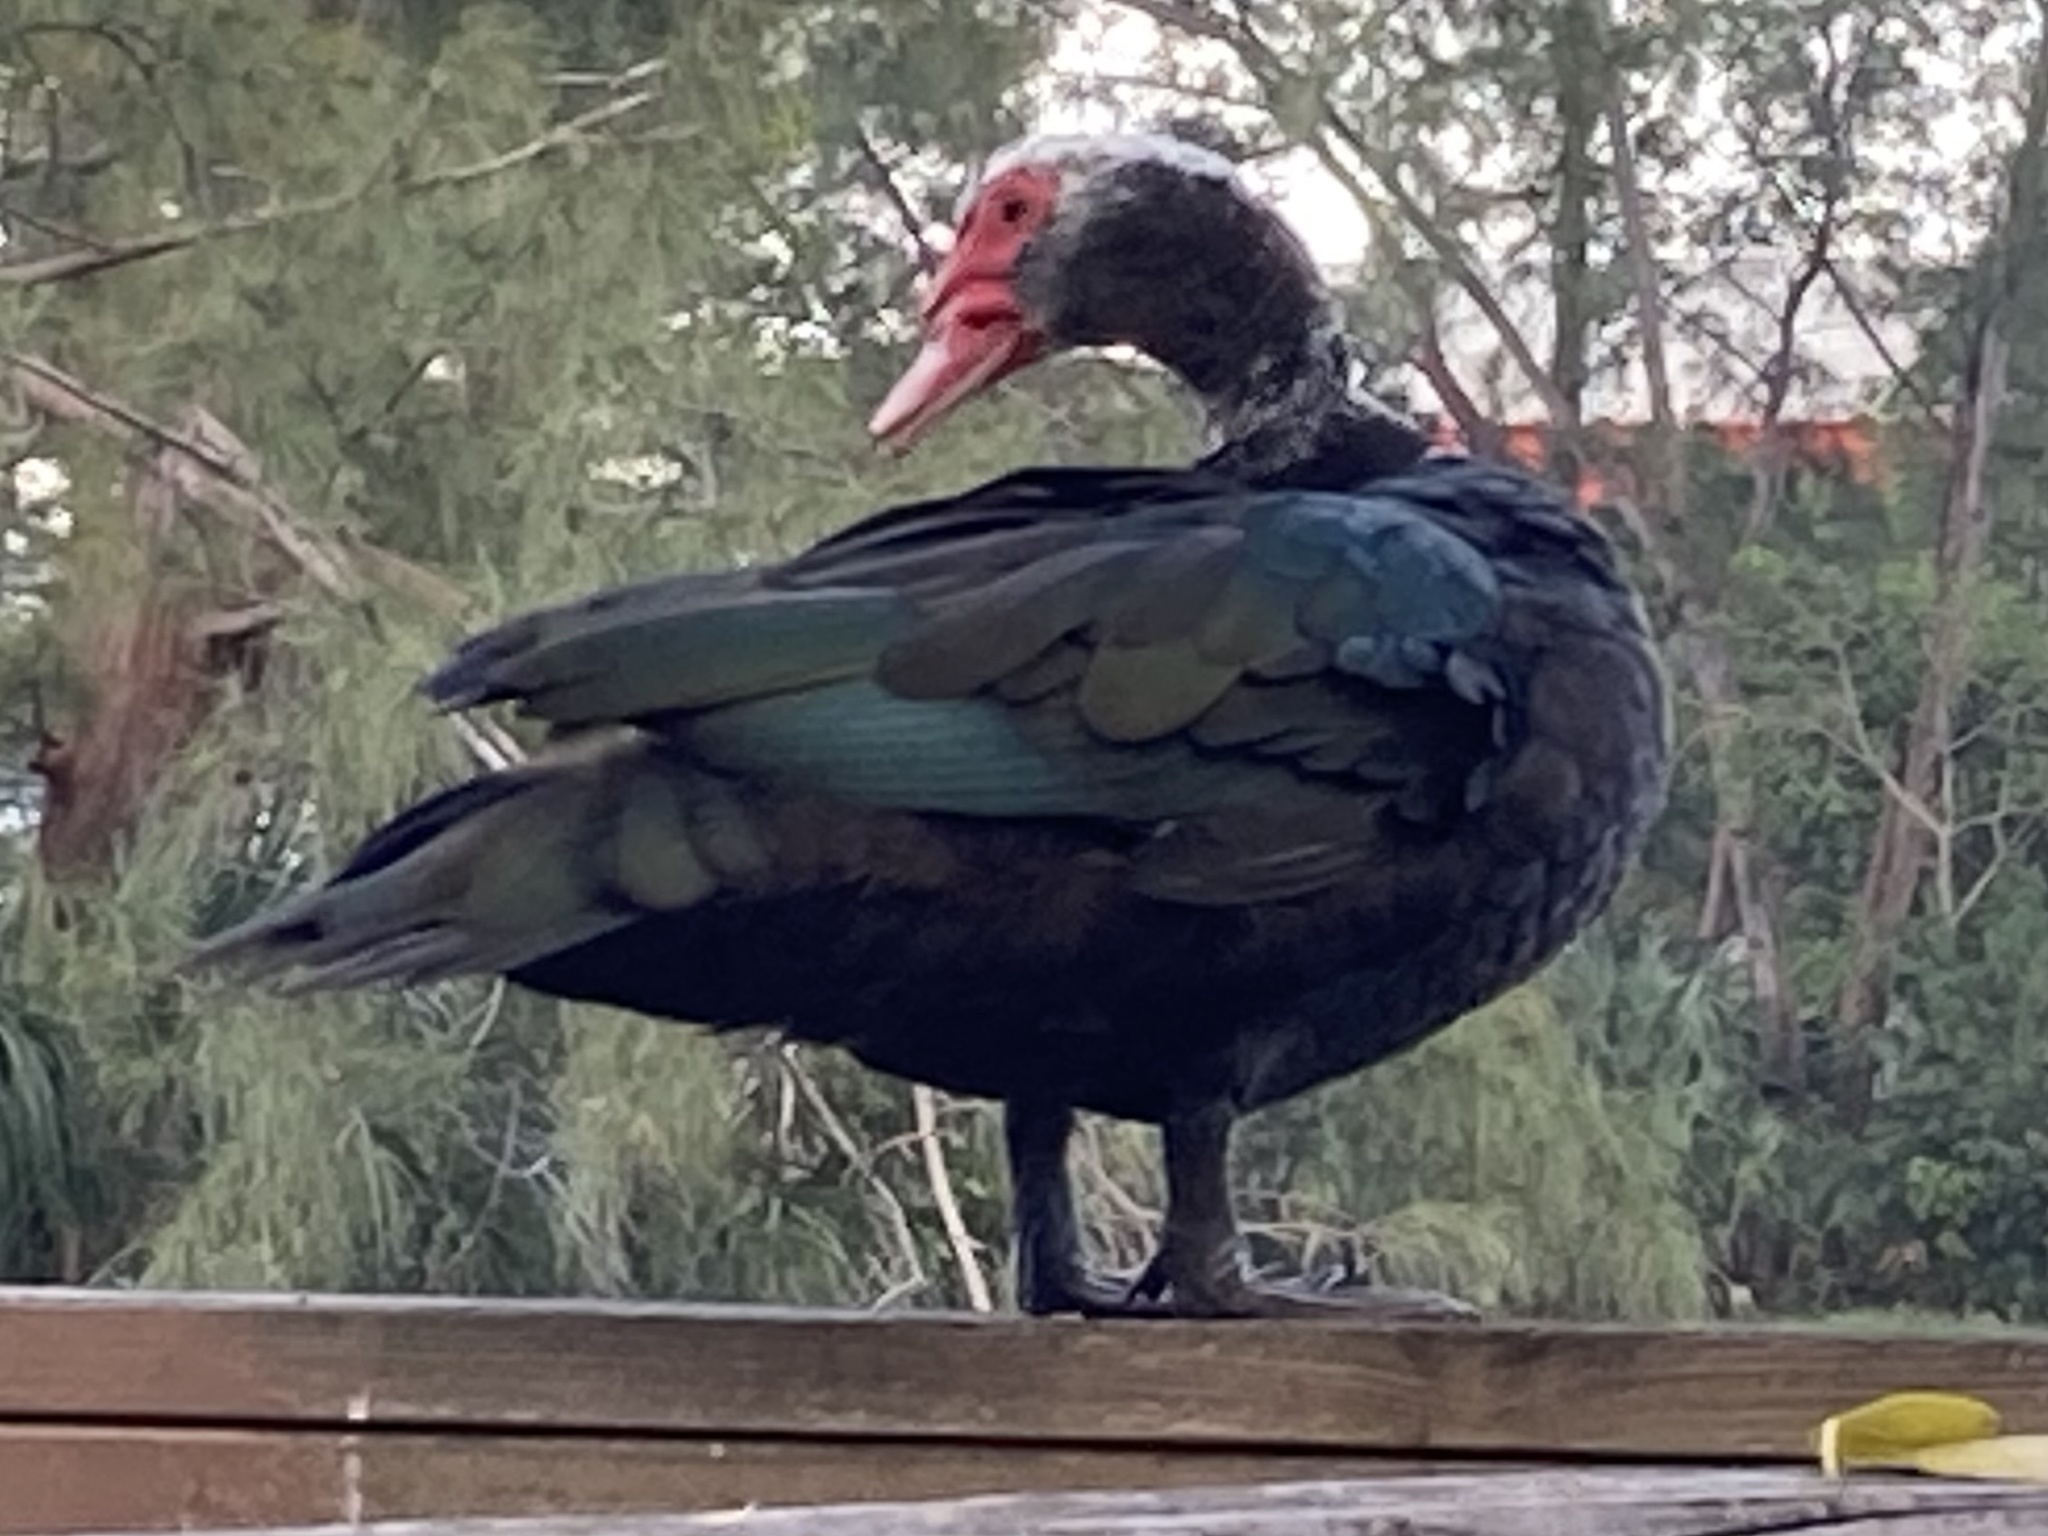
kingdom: Animalia
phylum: Chordata
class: Aves
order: Anseriformes
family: Anatidae
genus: Cairina
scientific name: Cairina moschata
